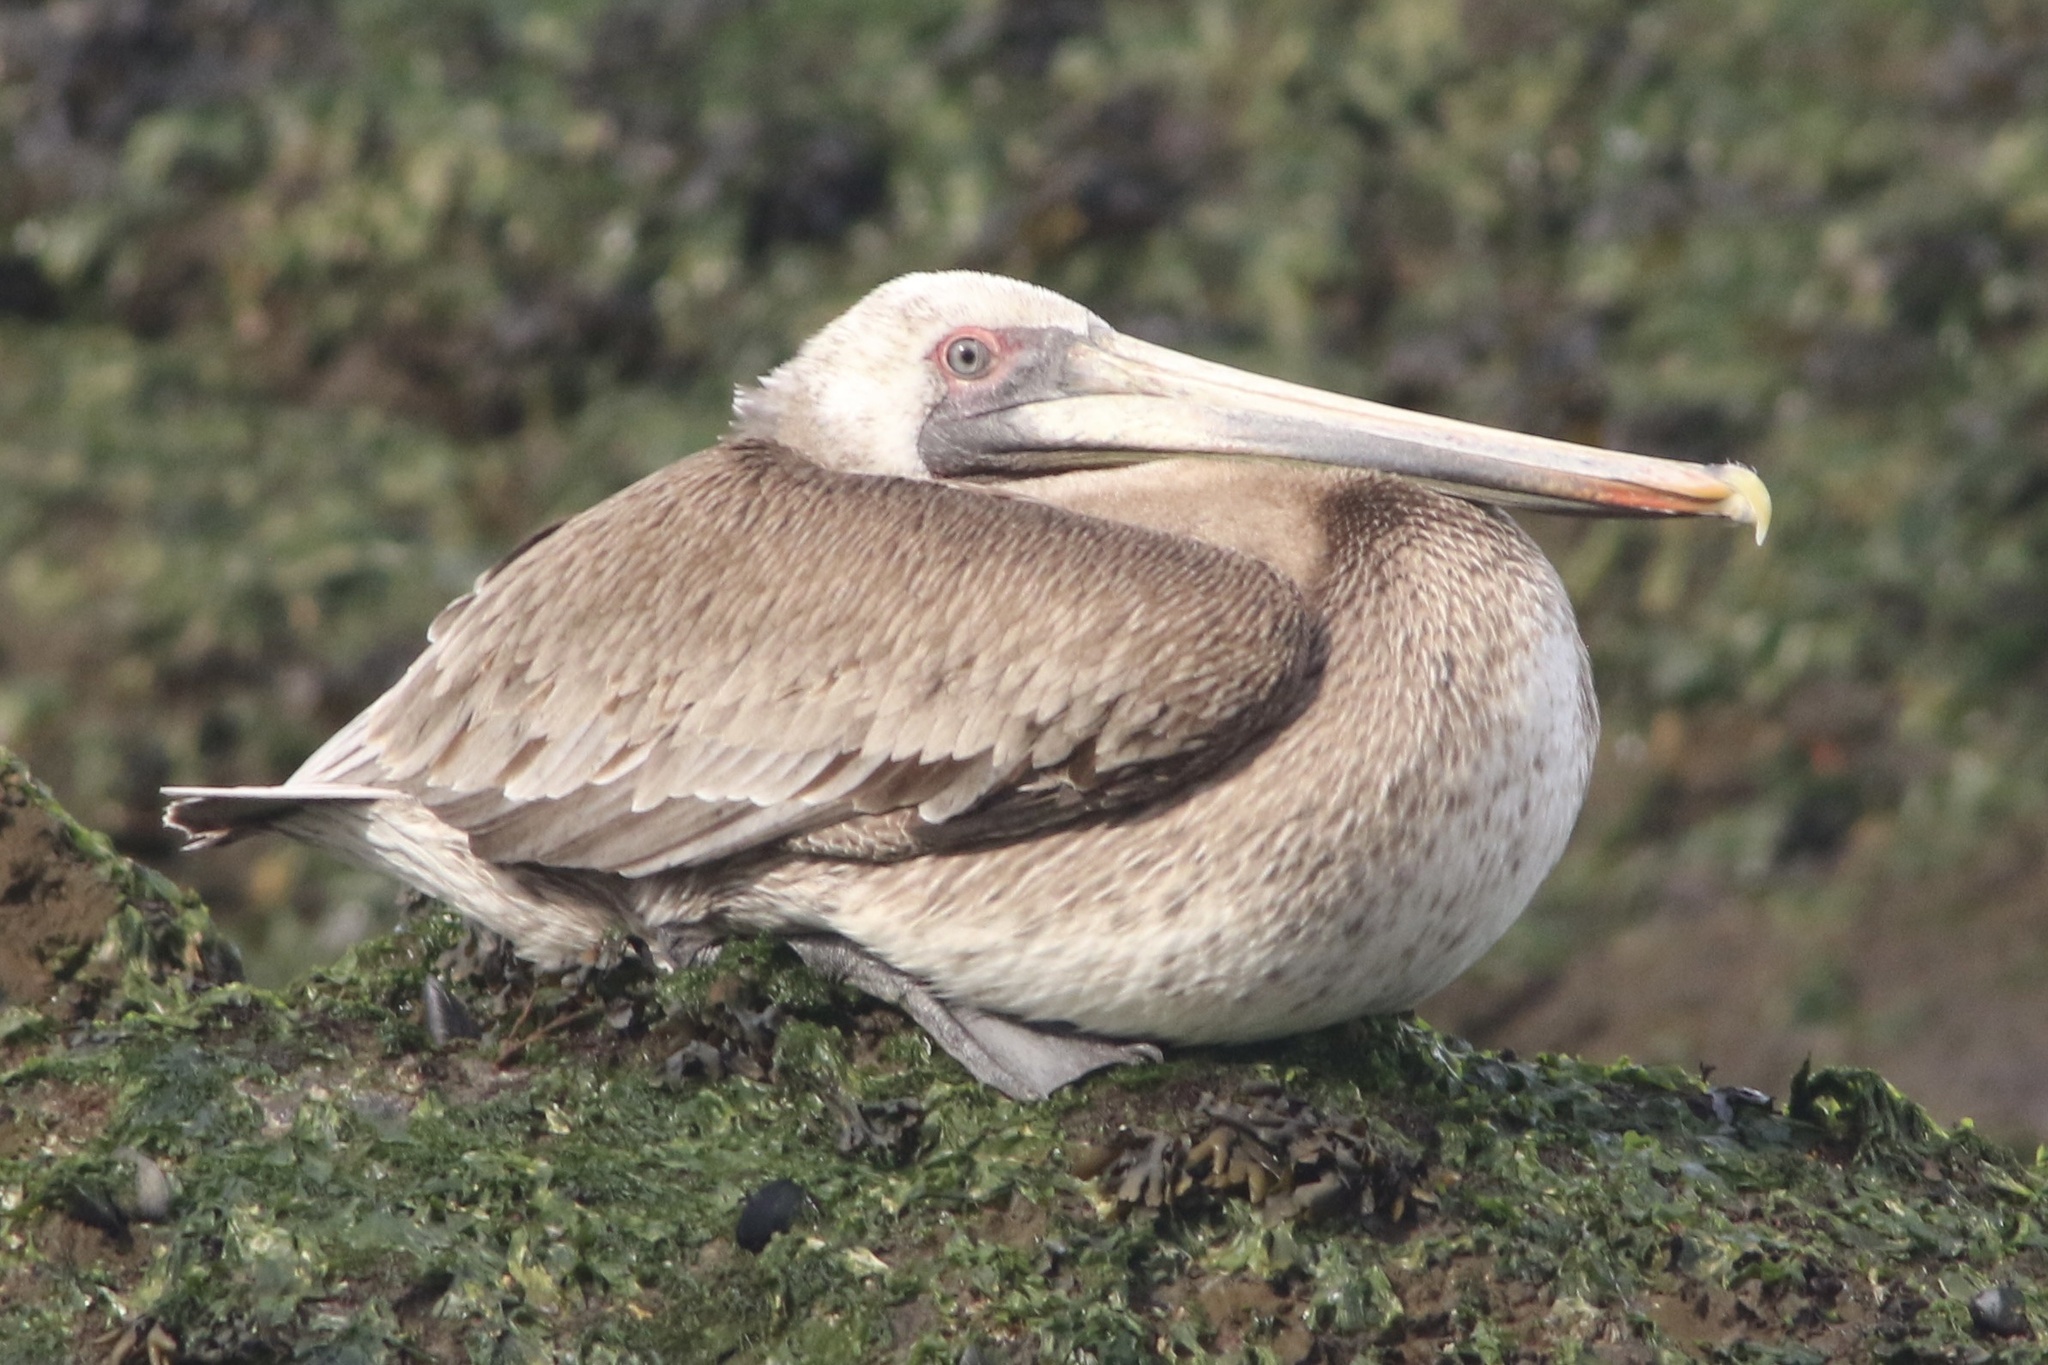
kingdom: Animalia
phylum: Chordata
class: Aves
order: Pelecaniformes
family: Pelecanidae
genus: Pelecanus
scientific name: Pelecanus occidentalis
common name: Brown pelican
